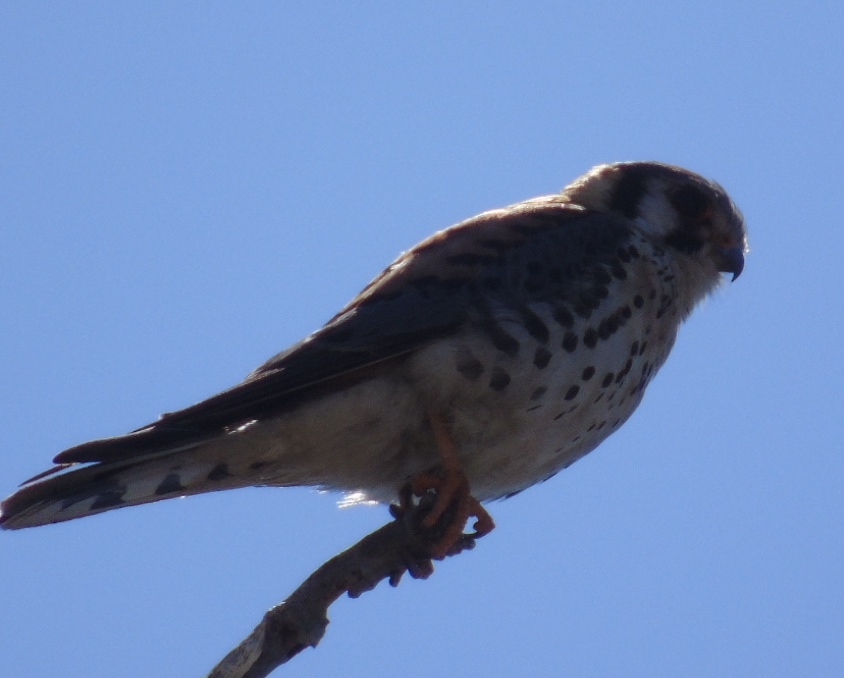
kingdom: Animalia
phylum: Chordata
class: Aves
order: Falconiformes
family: Falconidae
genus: Falco
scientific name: Falco sparverius
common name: American kestrel
